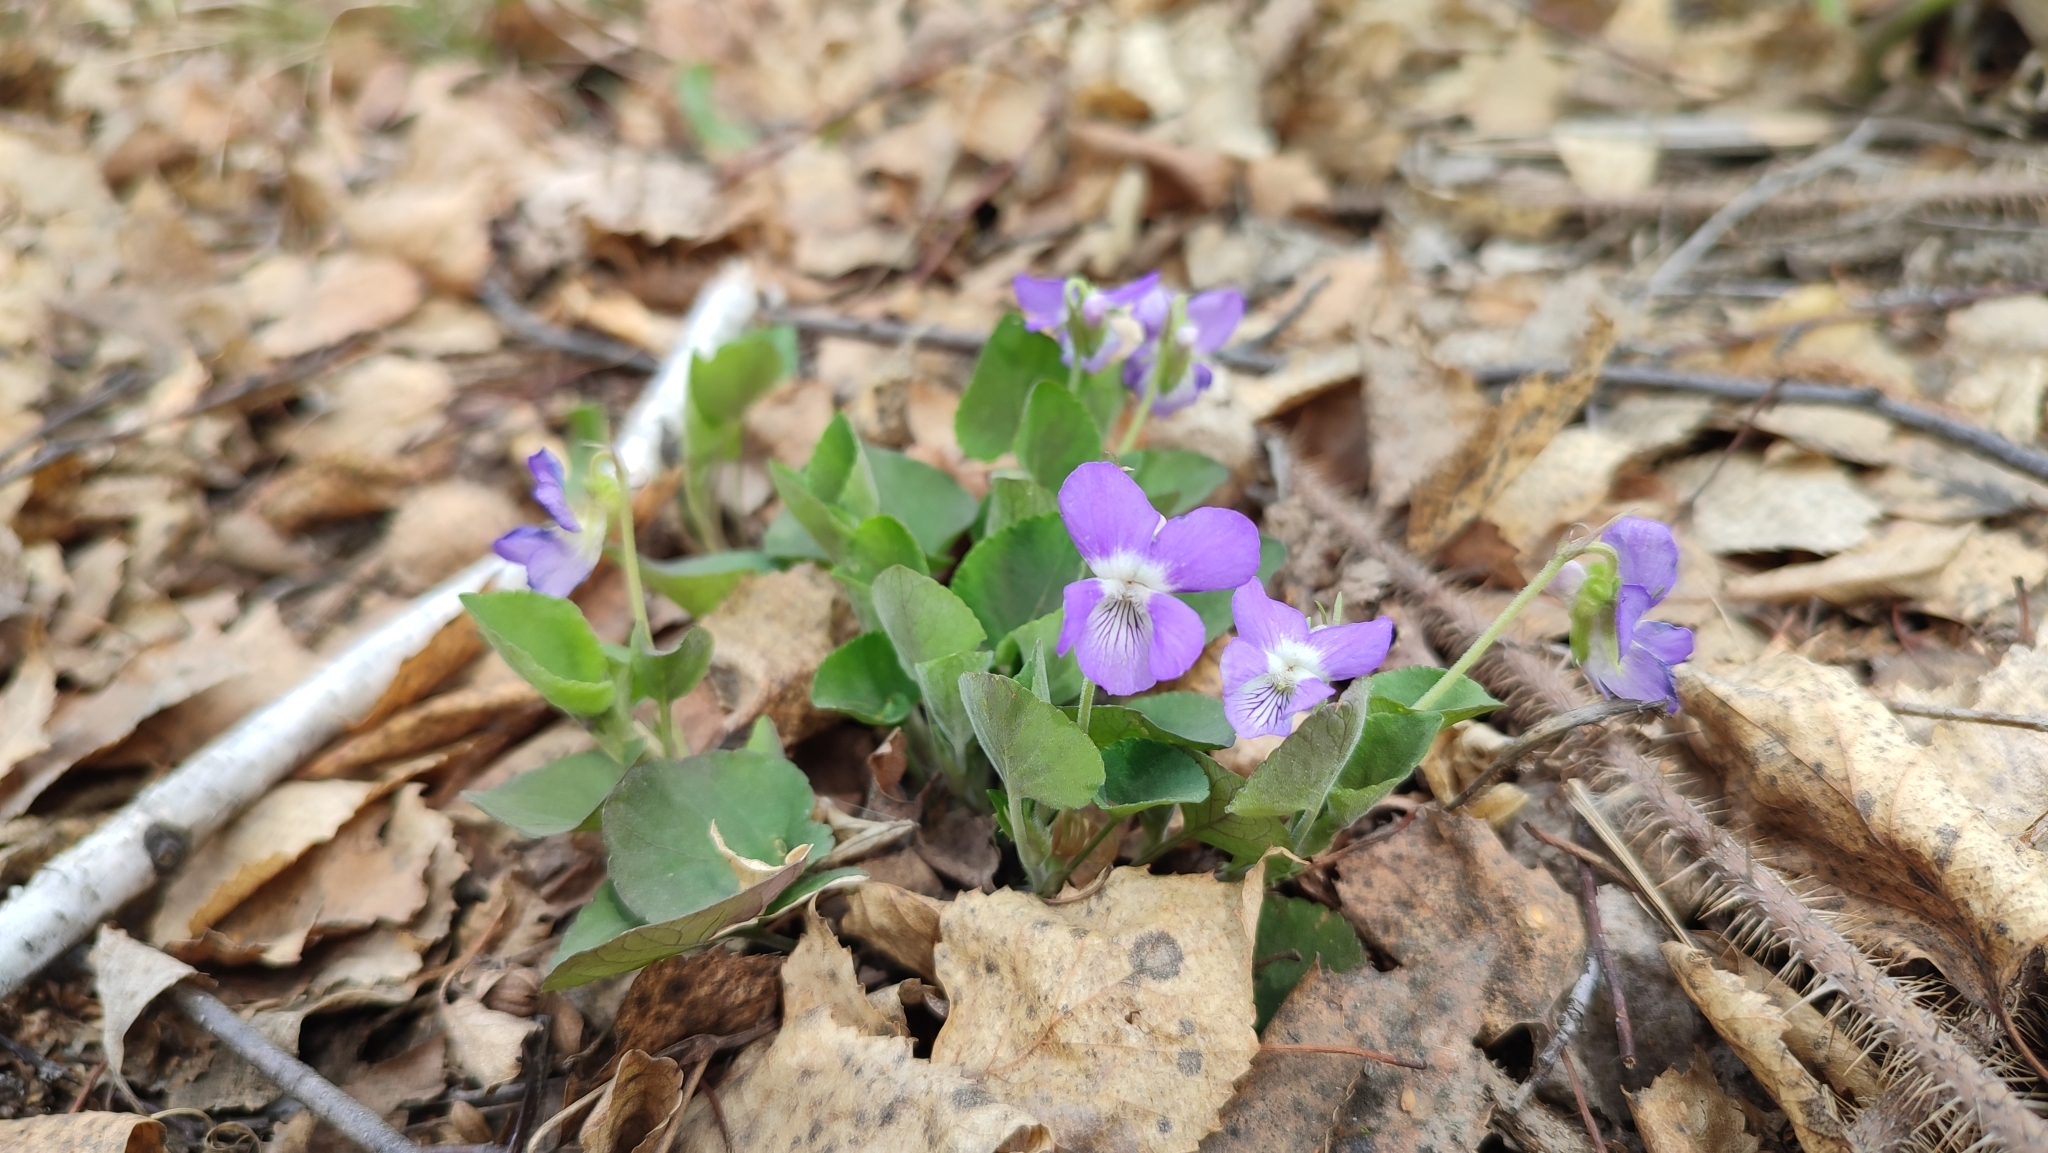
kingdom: Plantae
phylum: Tracheophyta
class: Magnoliopsida
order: Malpighiales
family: Violaceae
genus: Viola
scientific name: Viola rupestris
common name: Teesdale violet
